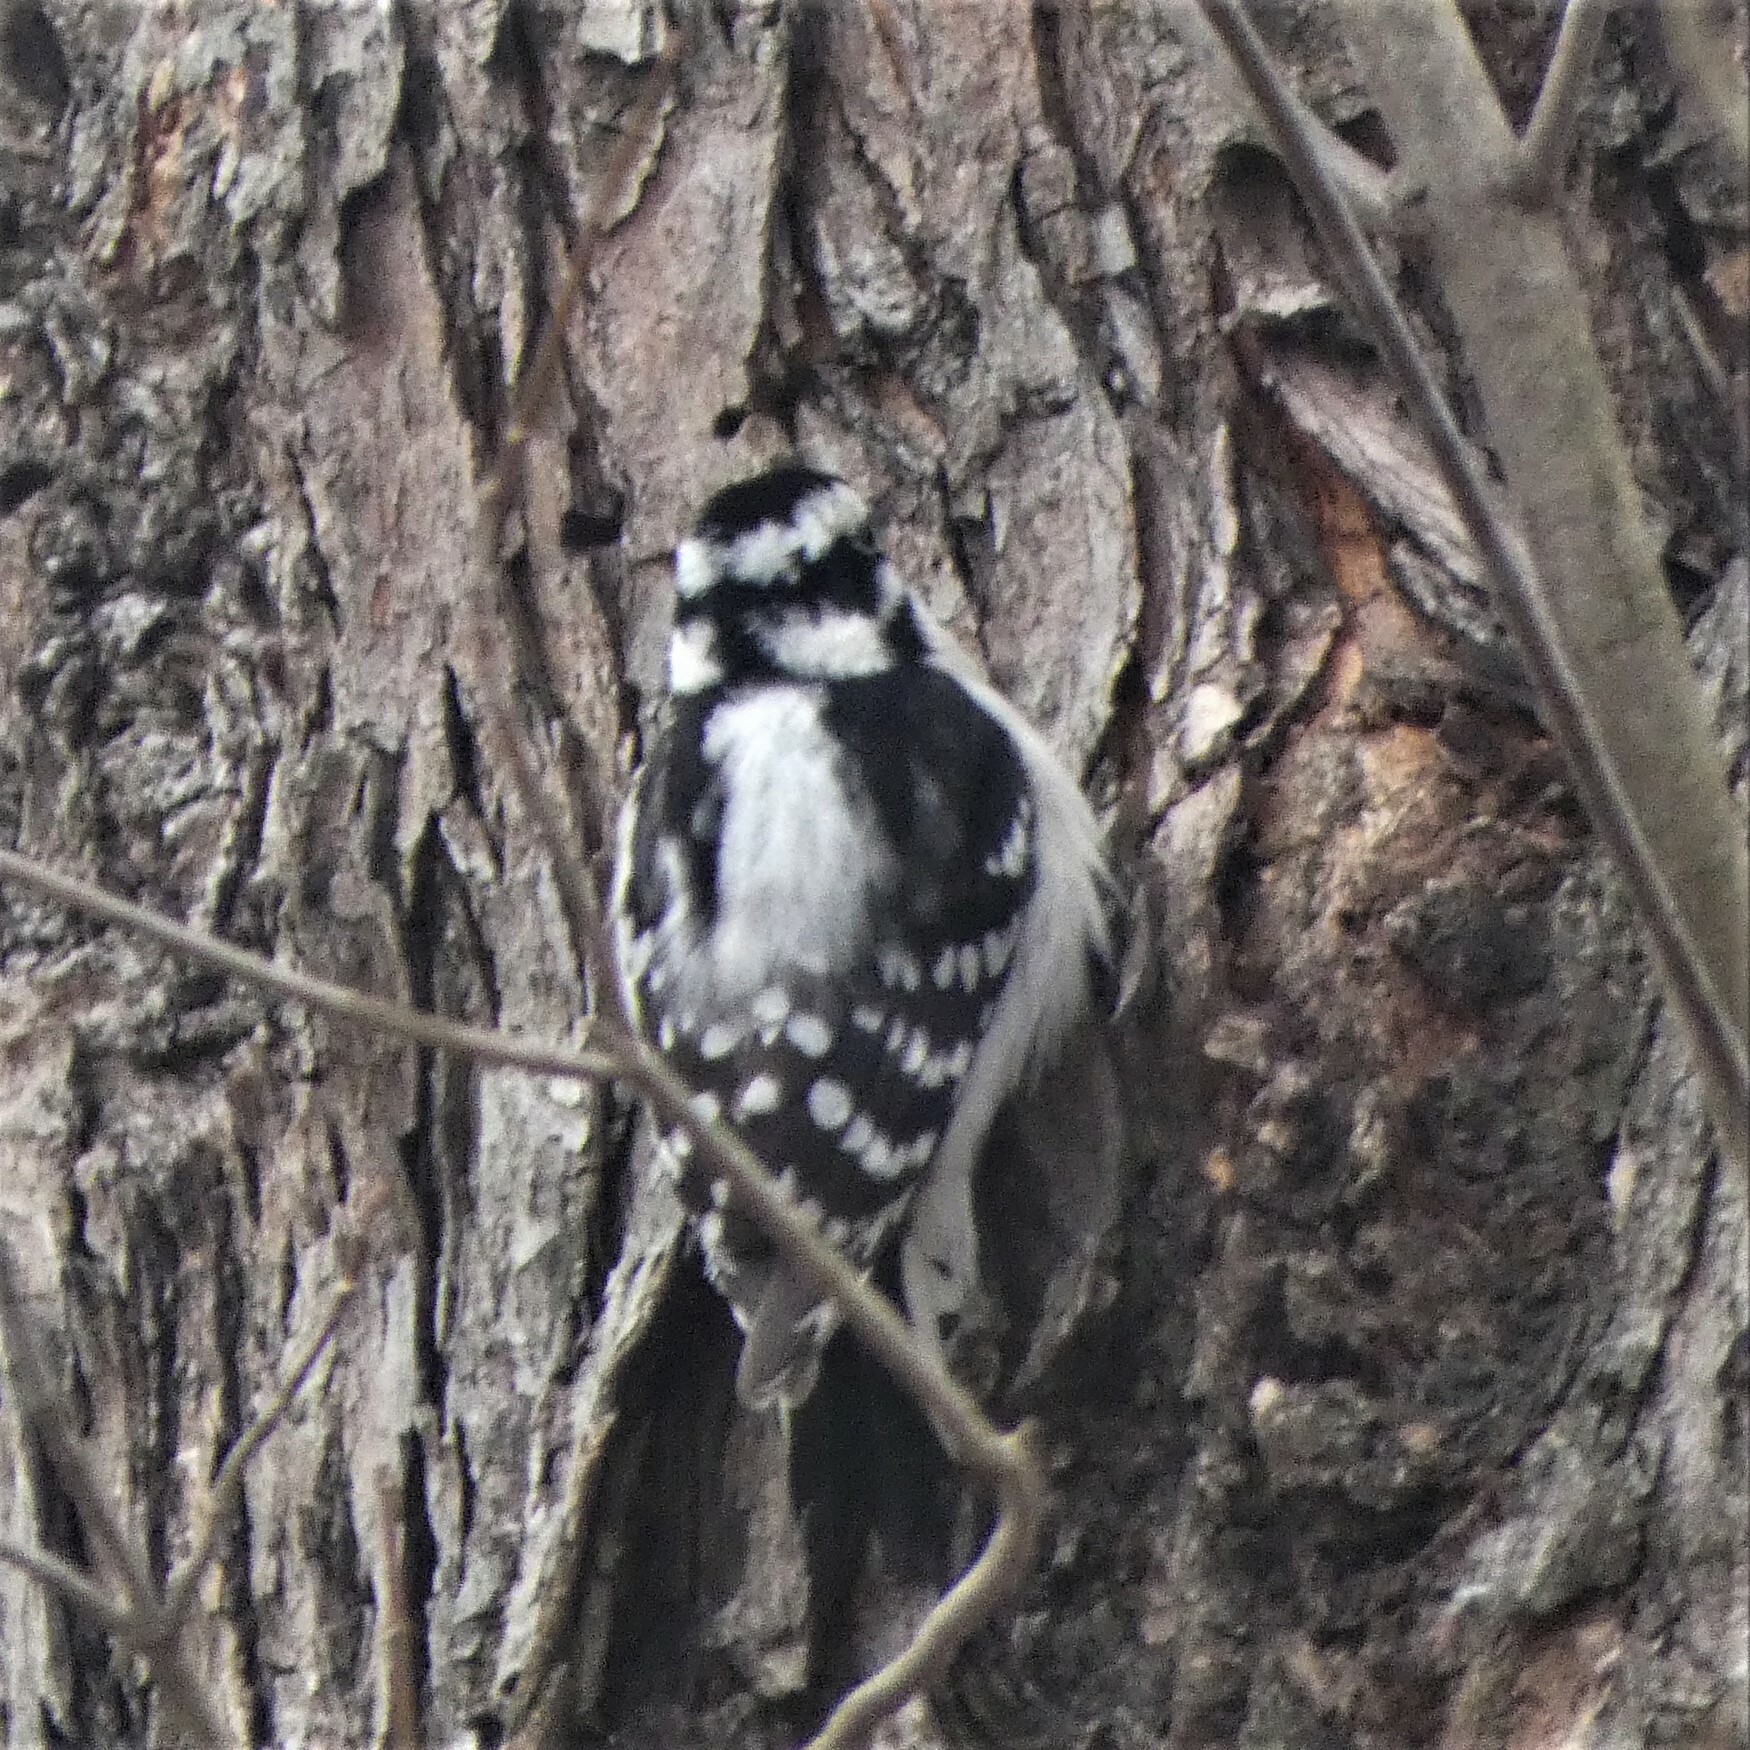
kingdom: Animalia
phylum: Chordata
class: Aves
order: Piciformes
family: Picidae
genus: Dryobates
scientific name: Dryobates pubescens
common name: Downy woodpecker
